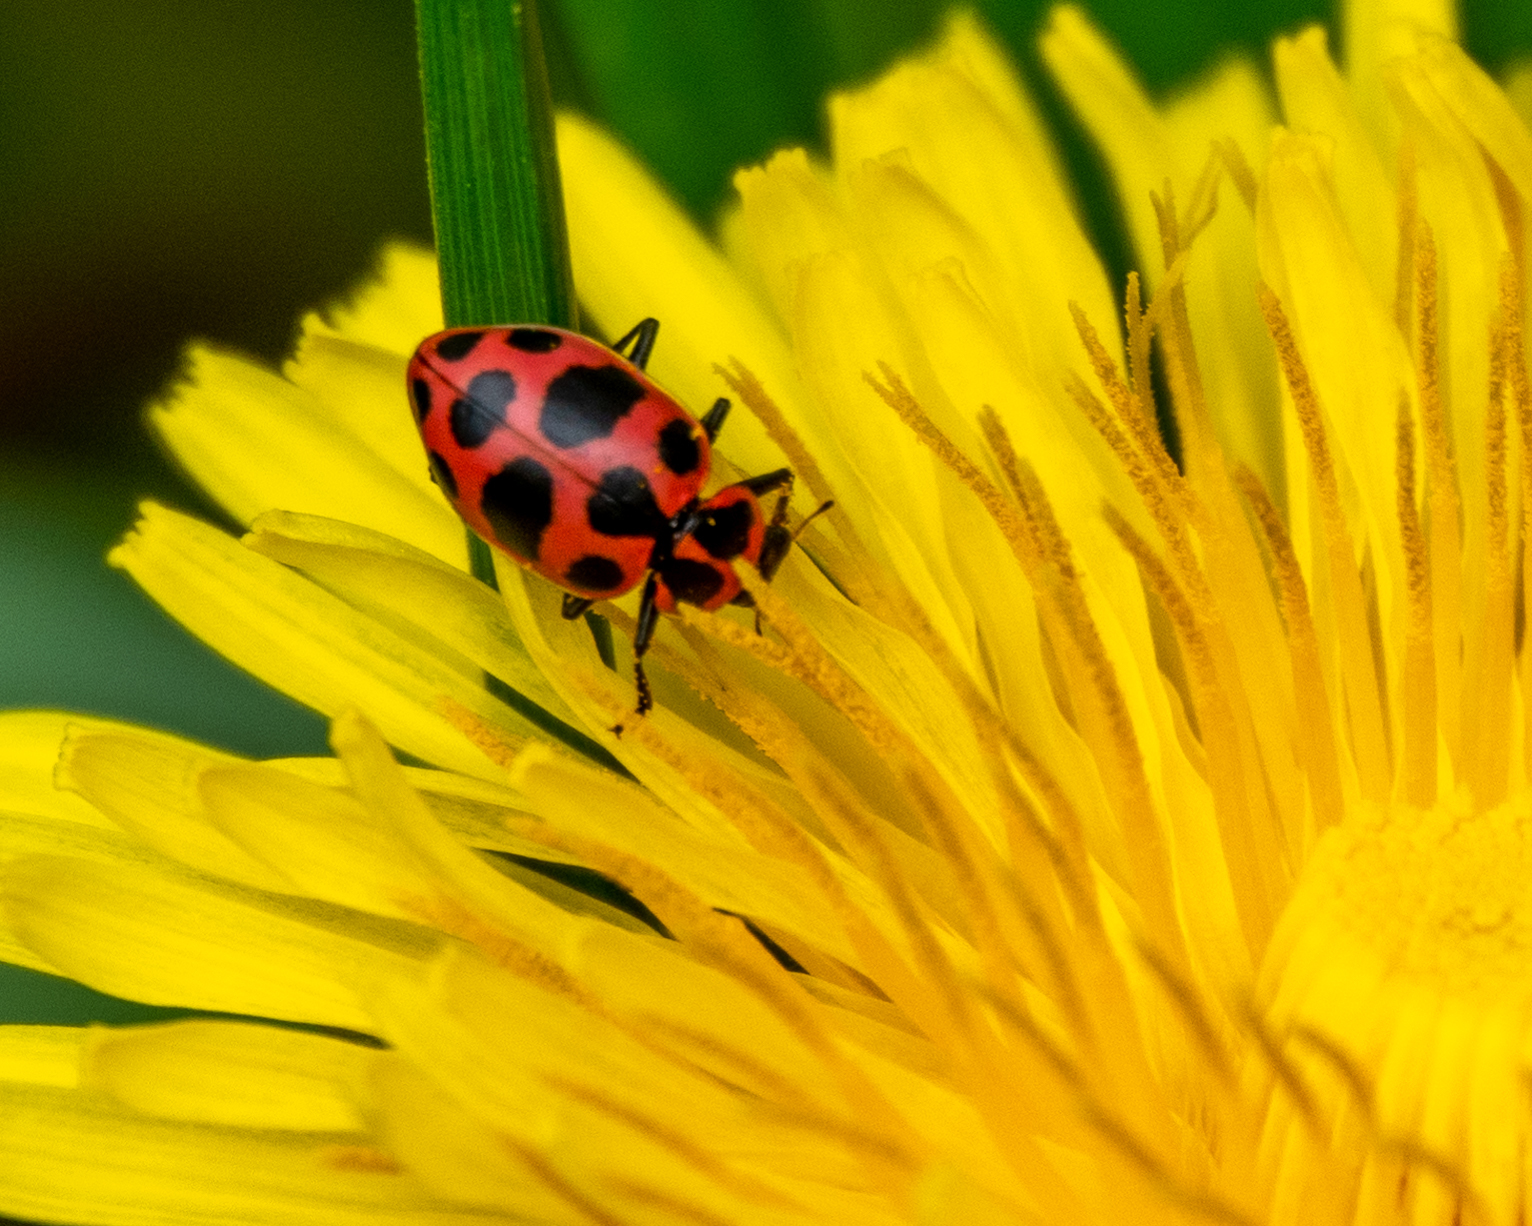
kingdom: Animalia
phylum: Arthropoda
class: Insecta
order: Coleoptera
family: Coccinellidae
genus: Coleomegilla
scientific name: Coleomegilla maculata
